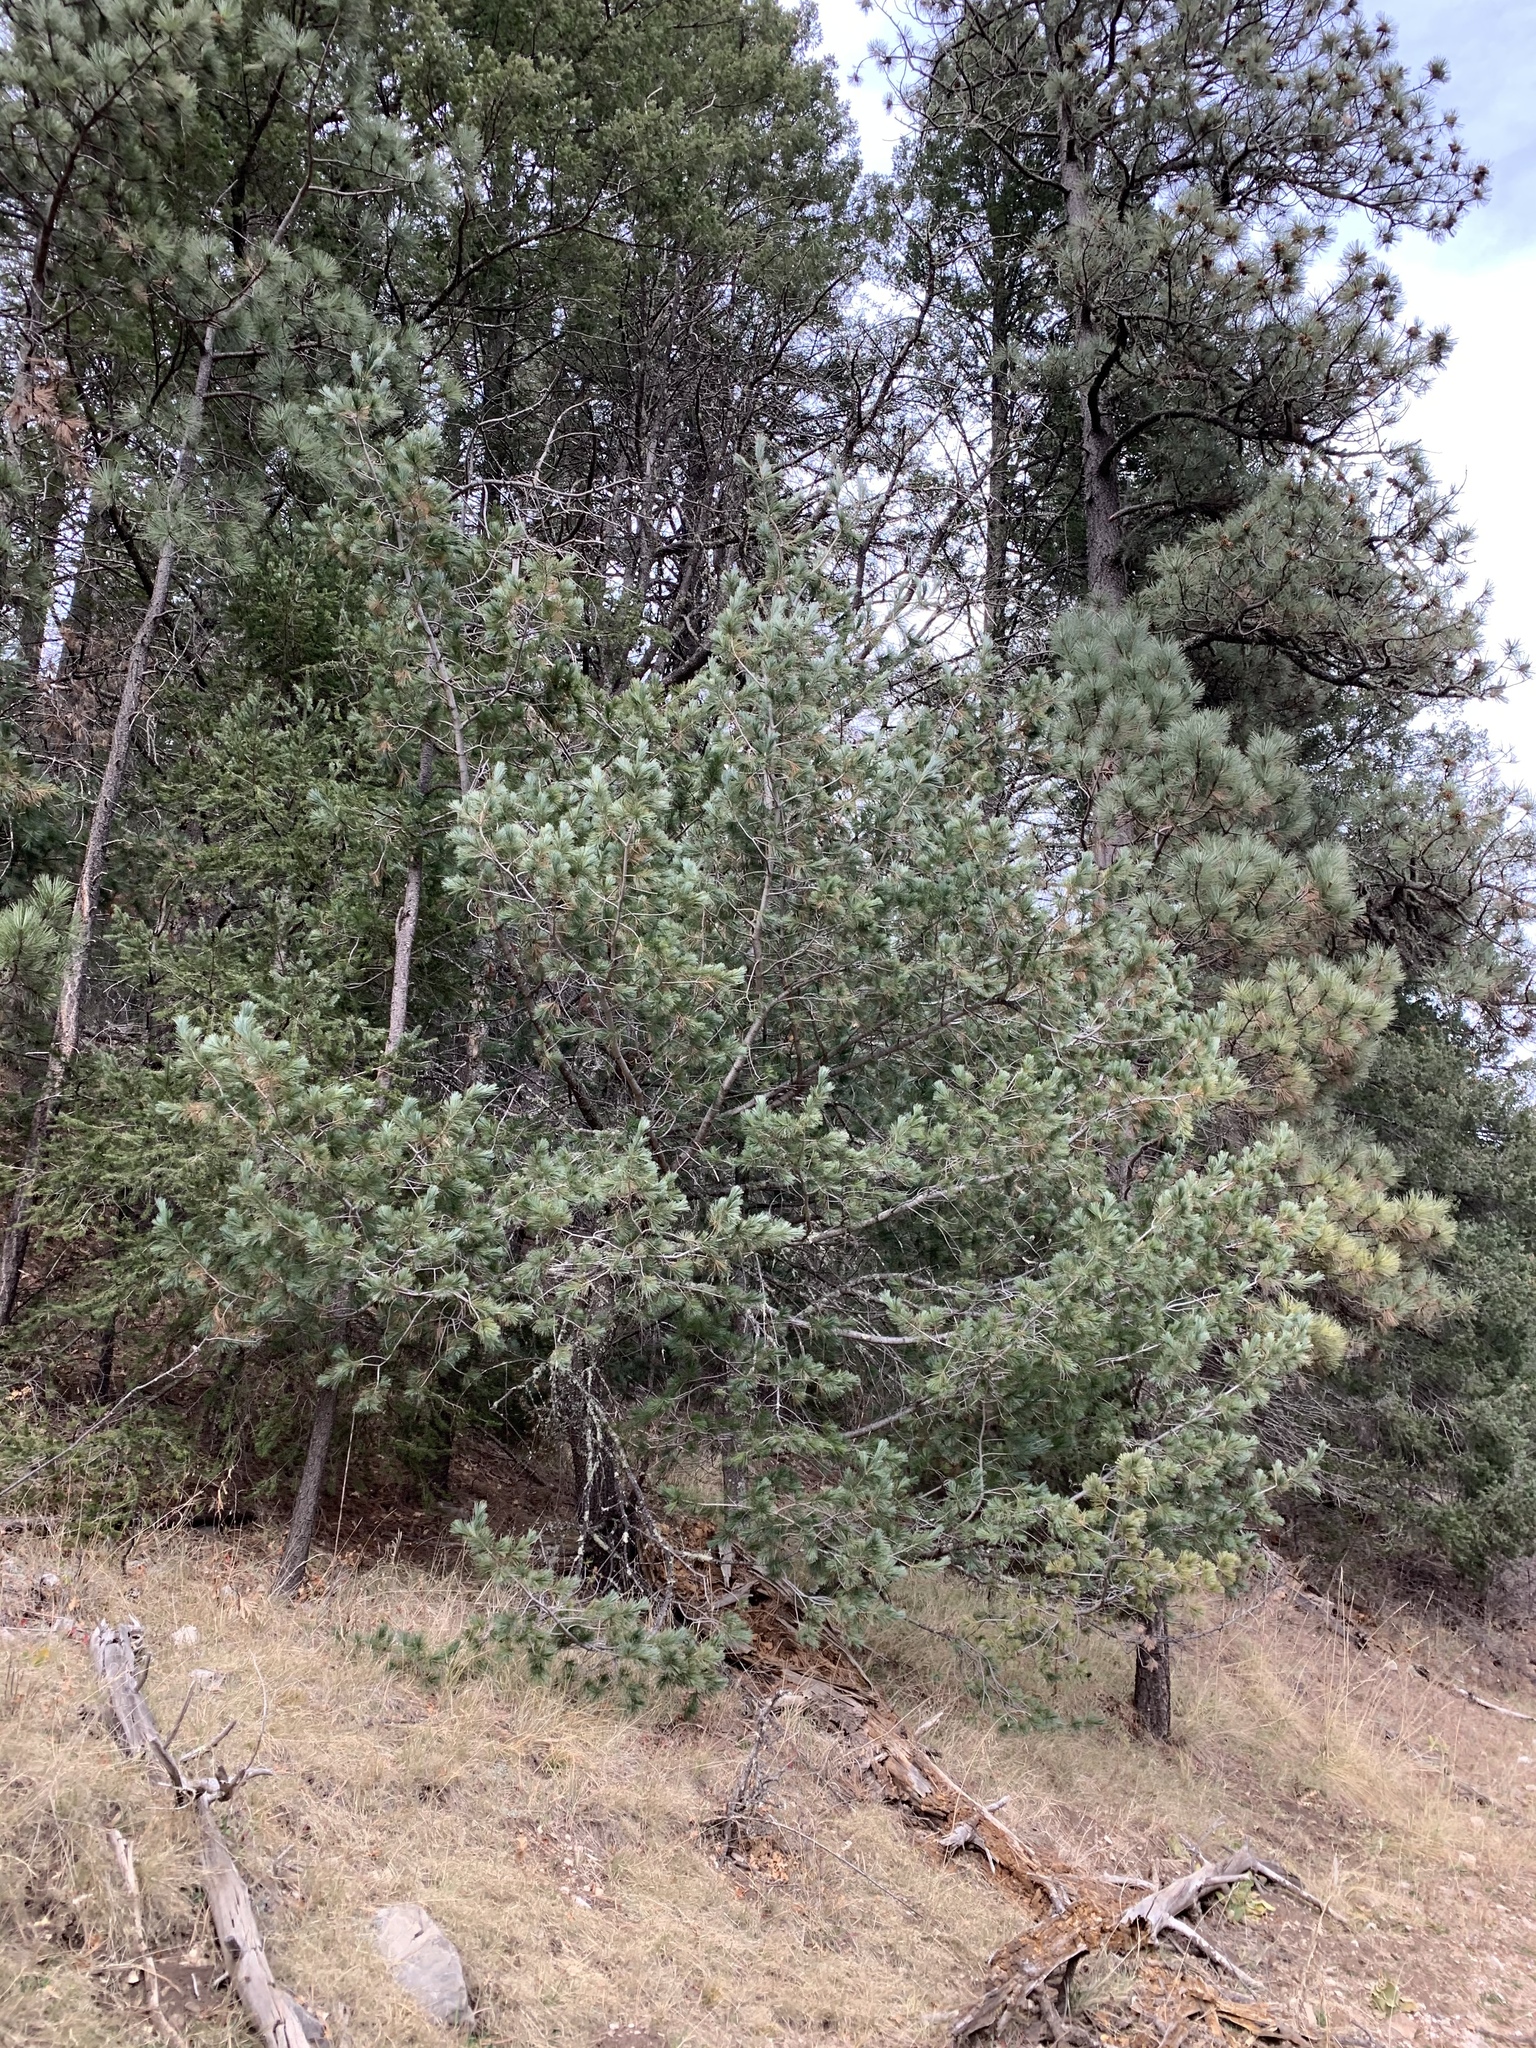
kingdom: Plantae
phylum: Tracheophyta
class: Pinopsida
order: Pinales
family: Pinaceae
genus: Pinus
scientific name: Pinus strobiformis
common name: Southwestern white pine
